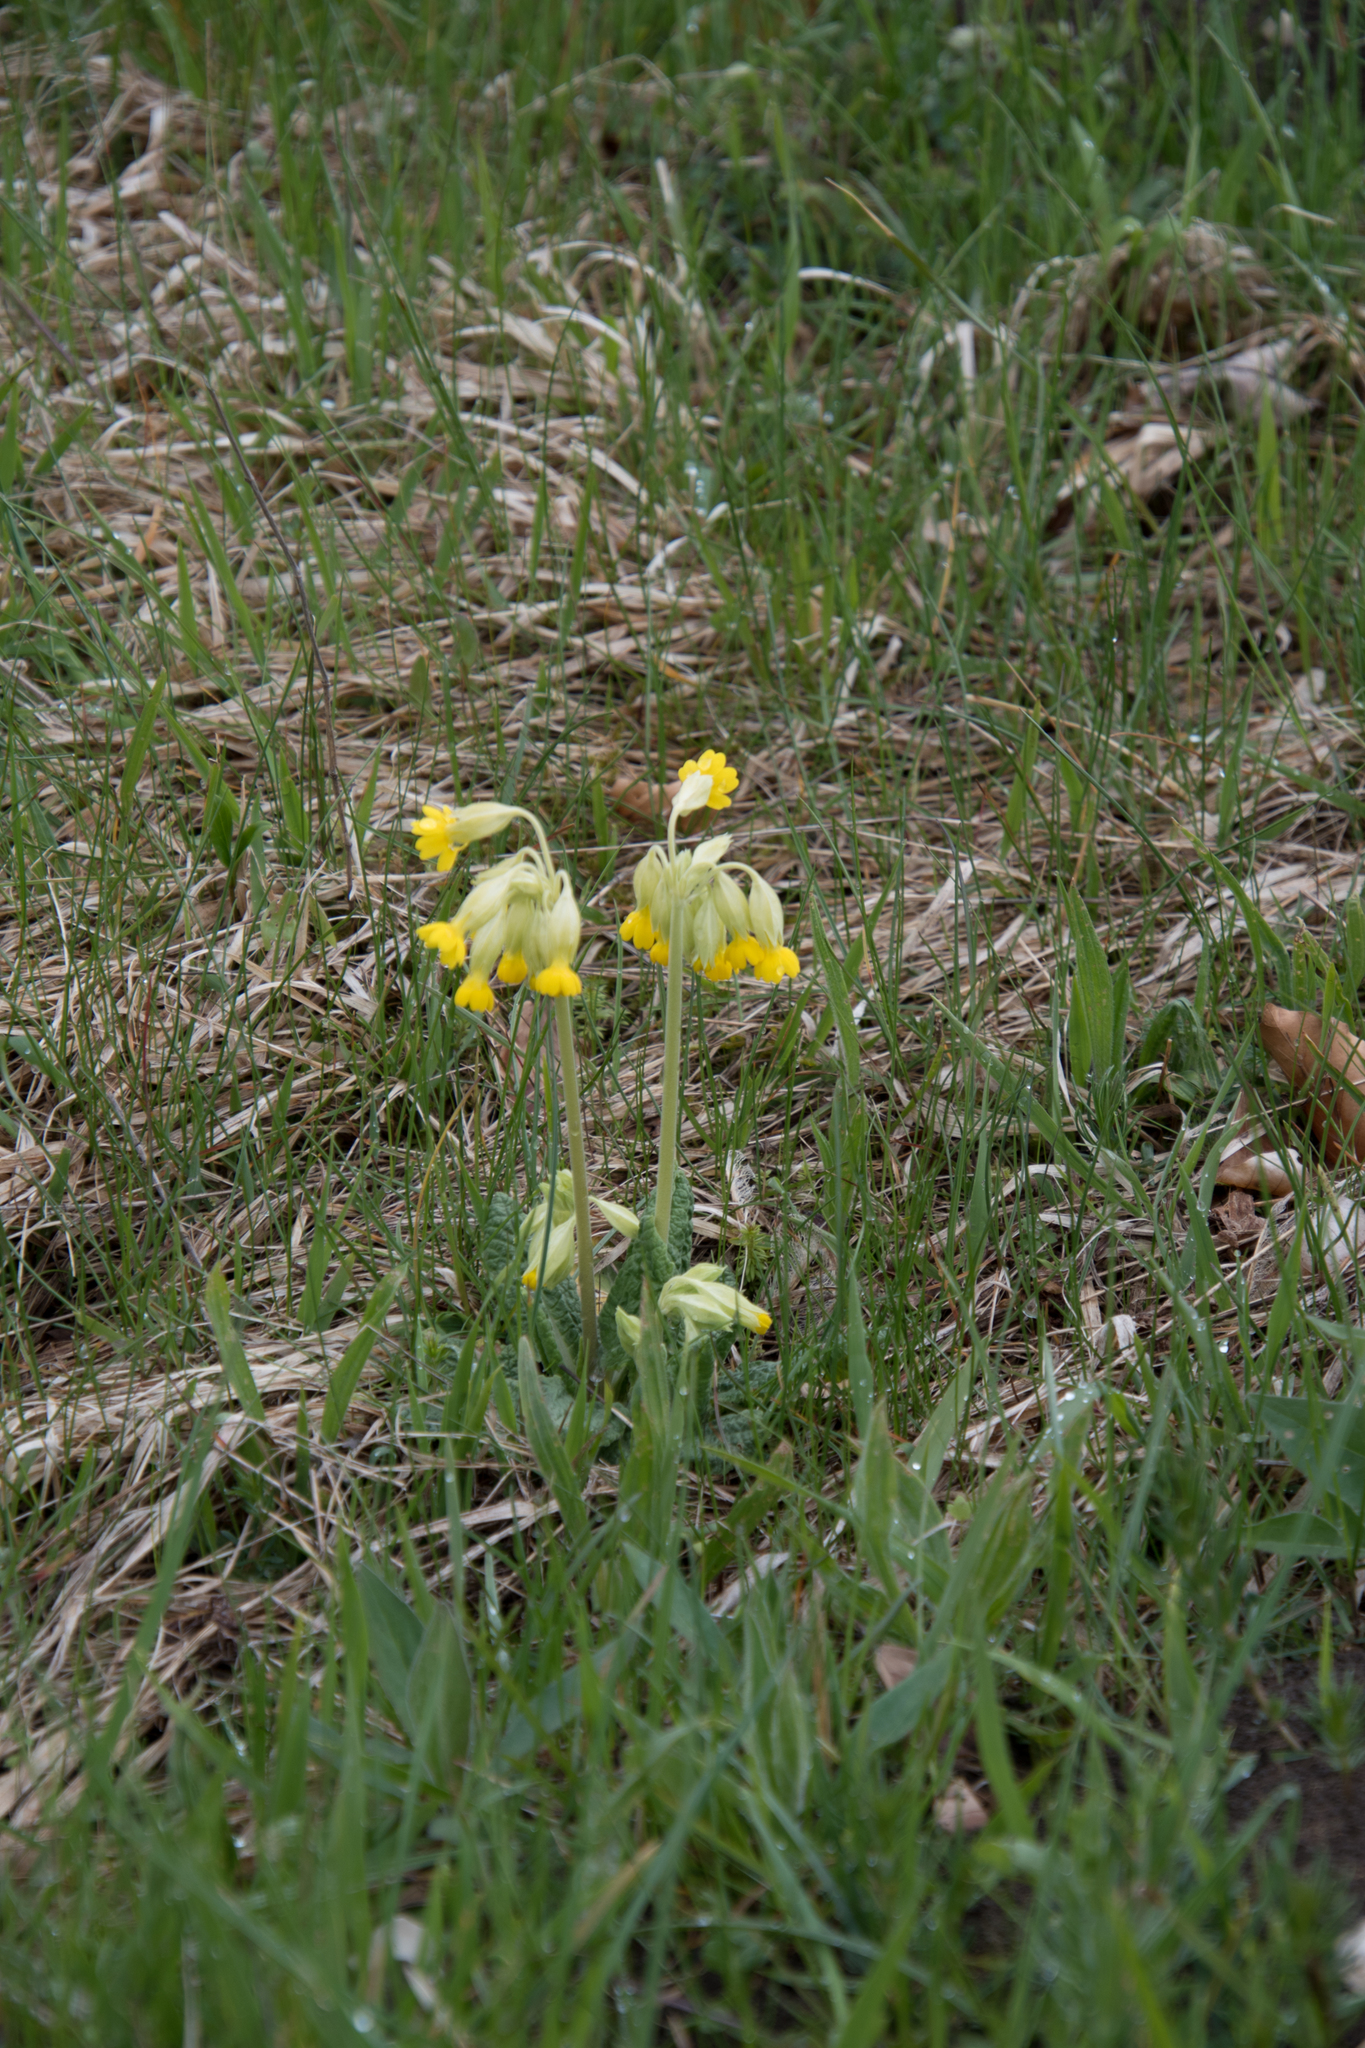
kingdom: Plantae
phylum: Tracheophyta
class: Magnoliopsida
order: Ericales
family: Primulaceae
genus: Primula
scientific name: Primula veris
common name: Cowslip
